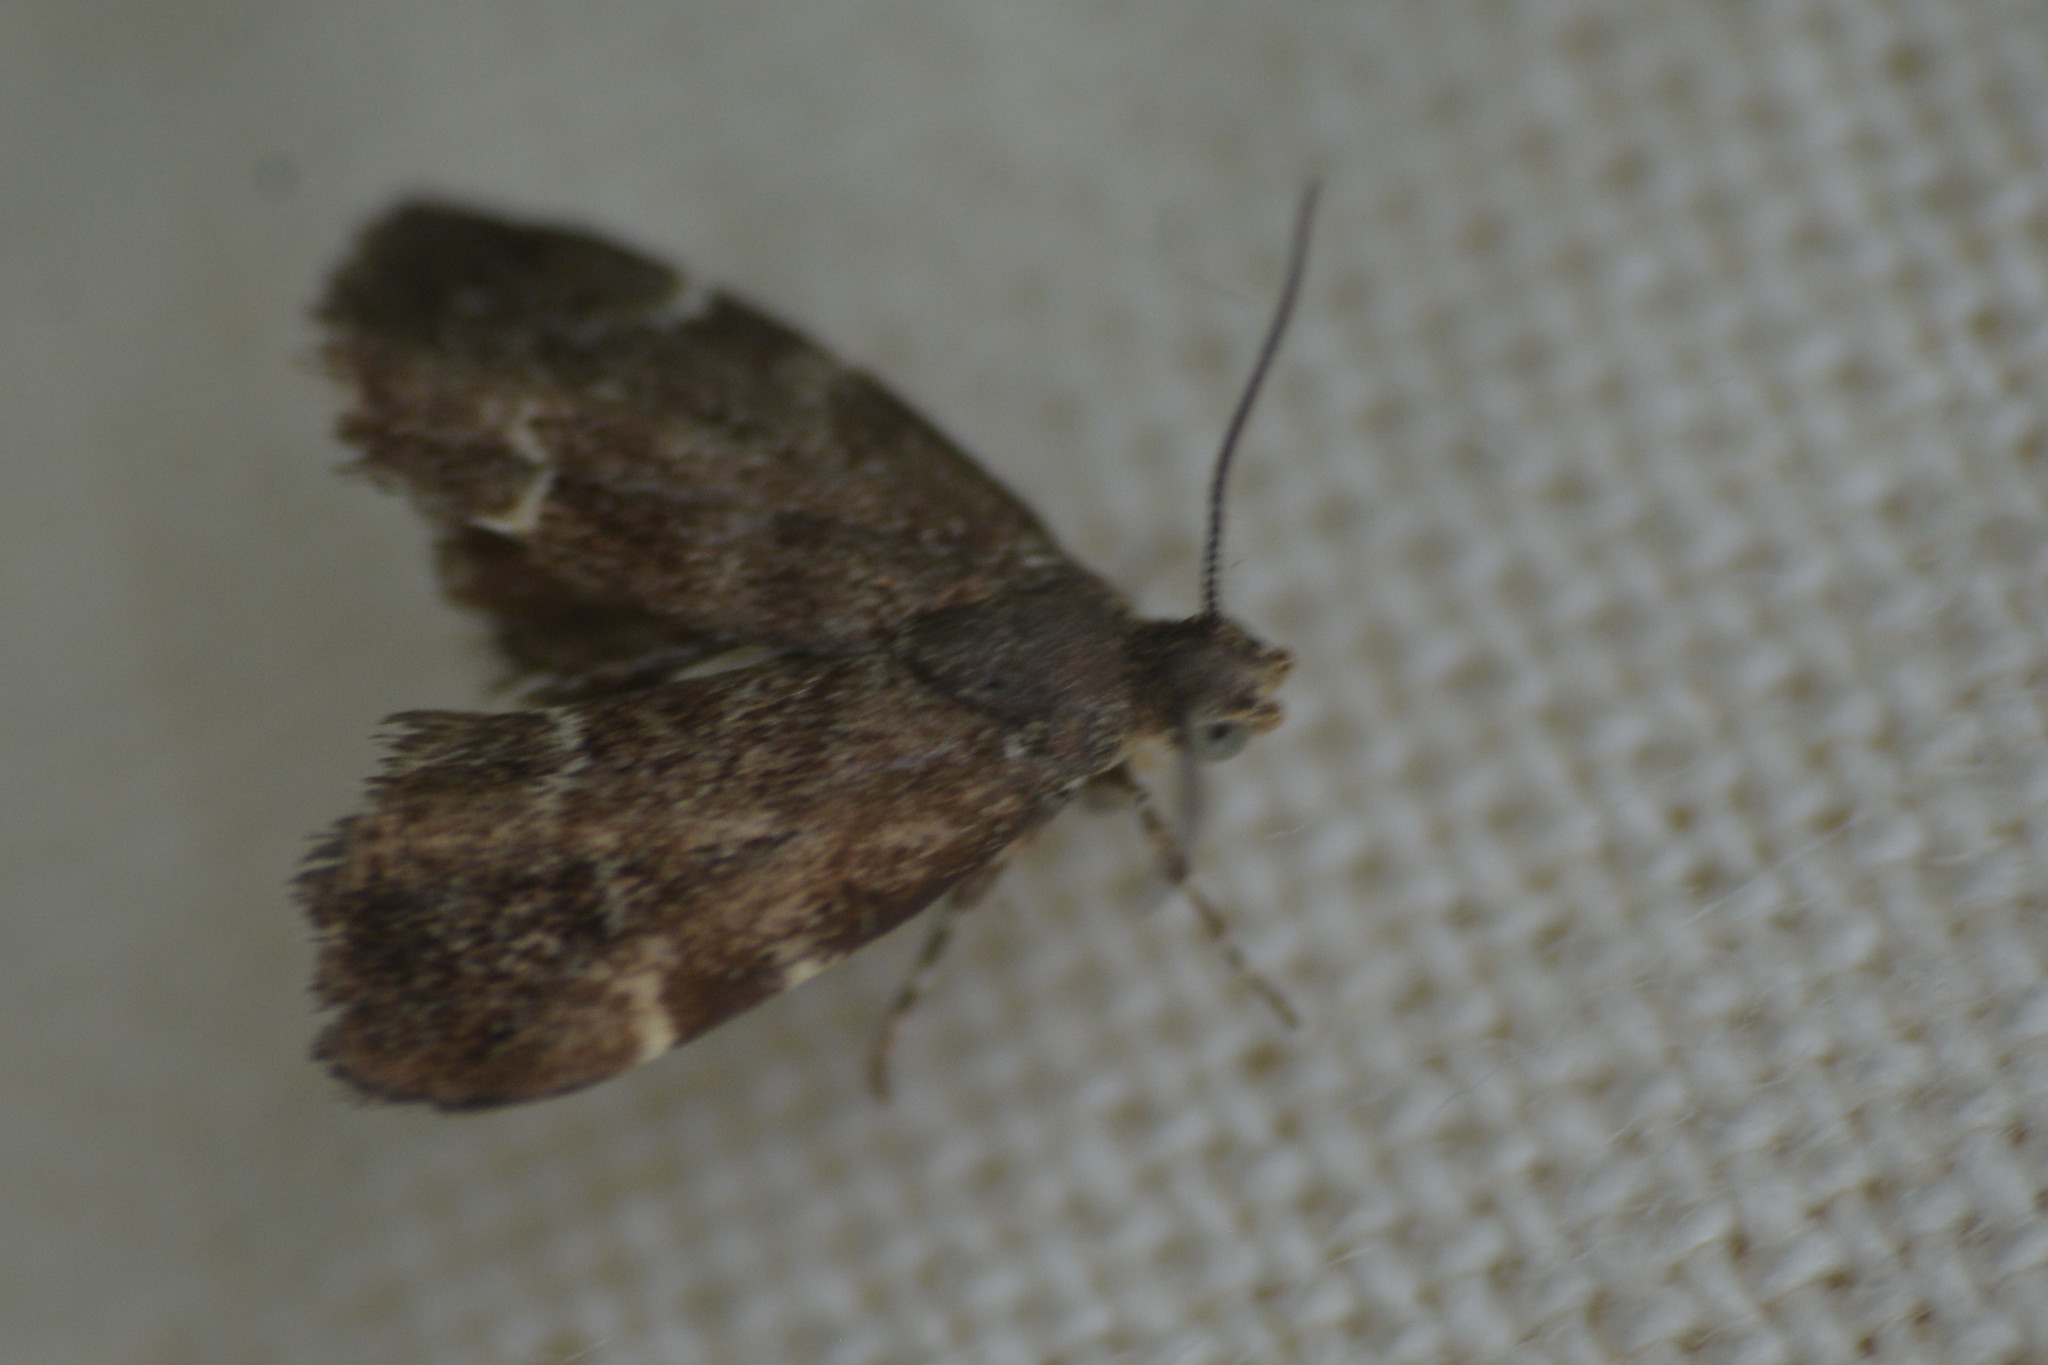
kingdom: Animalia
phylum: Arthropoda
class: Insecta
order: Lepidoptera
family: Choreutidae
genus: Anthophila
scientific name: Anthophila fabriciana
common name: Nettle-tap
